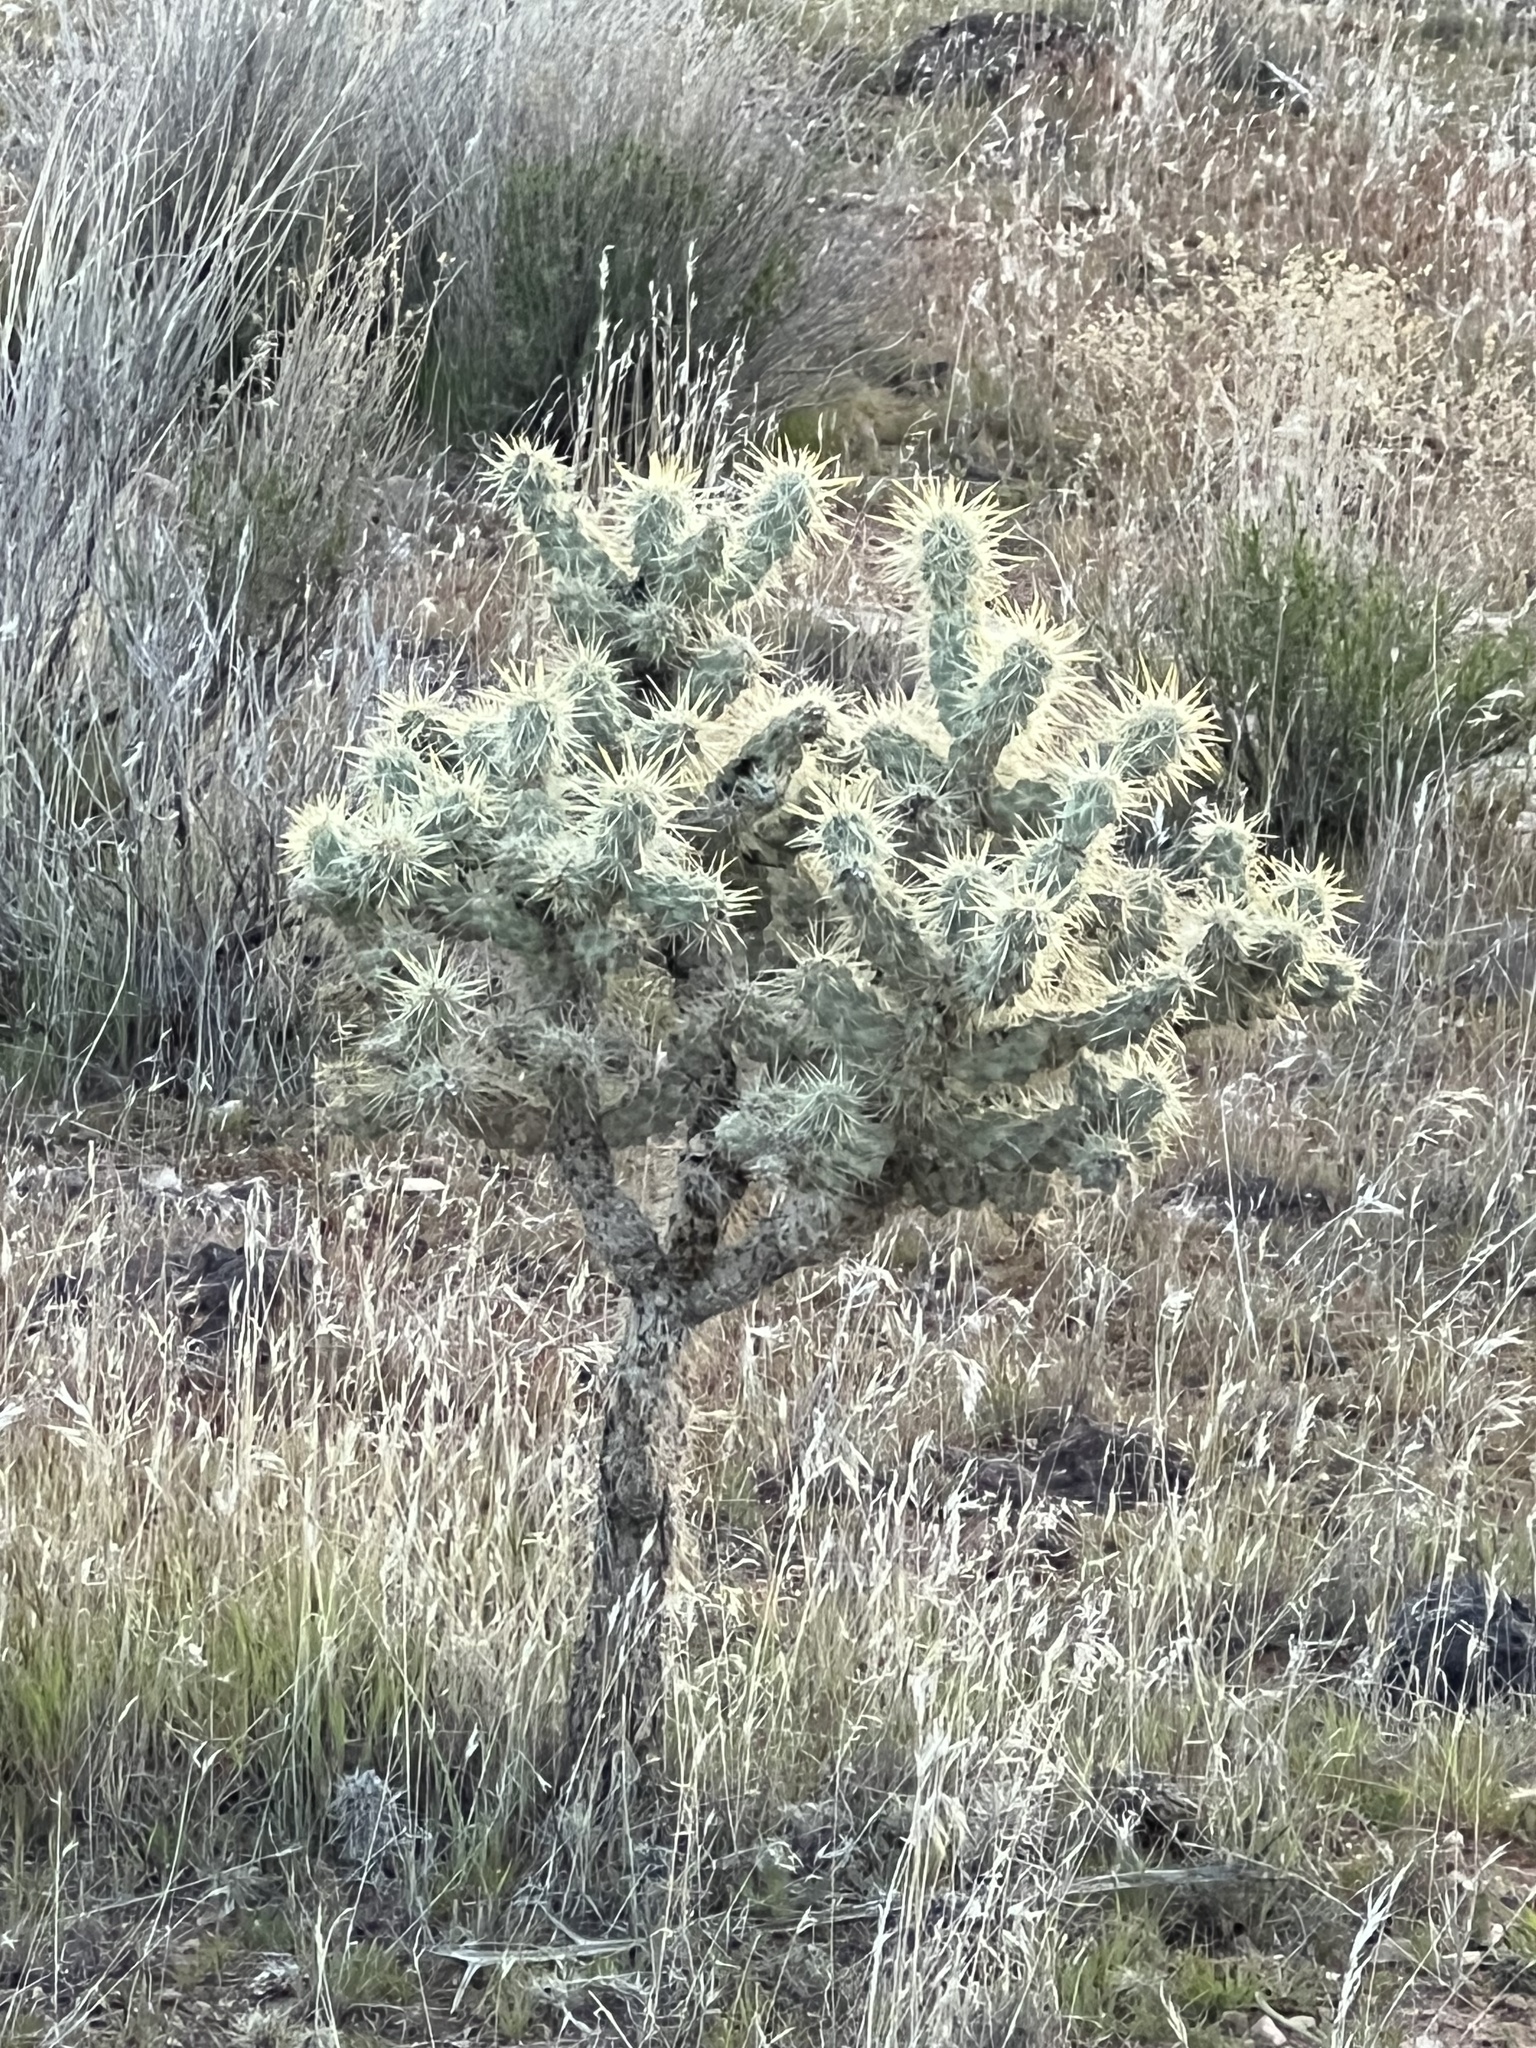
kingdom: Plantae
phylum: Tracheophyta
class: Magnoliopsida
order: Caryophyllales
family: Cactaceae
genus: Cylindropuntia
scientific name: Cylindropuntia echinocarpa
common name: Ground cholla
